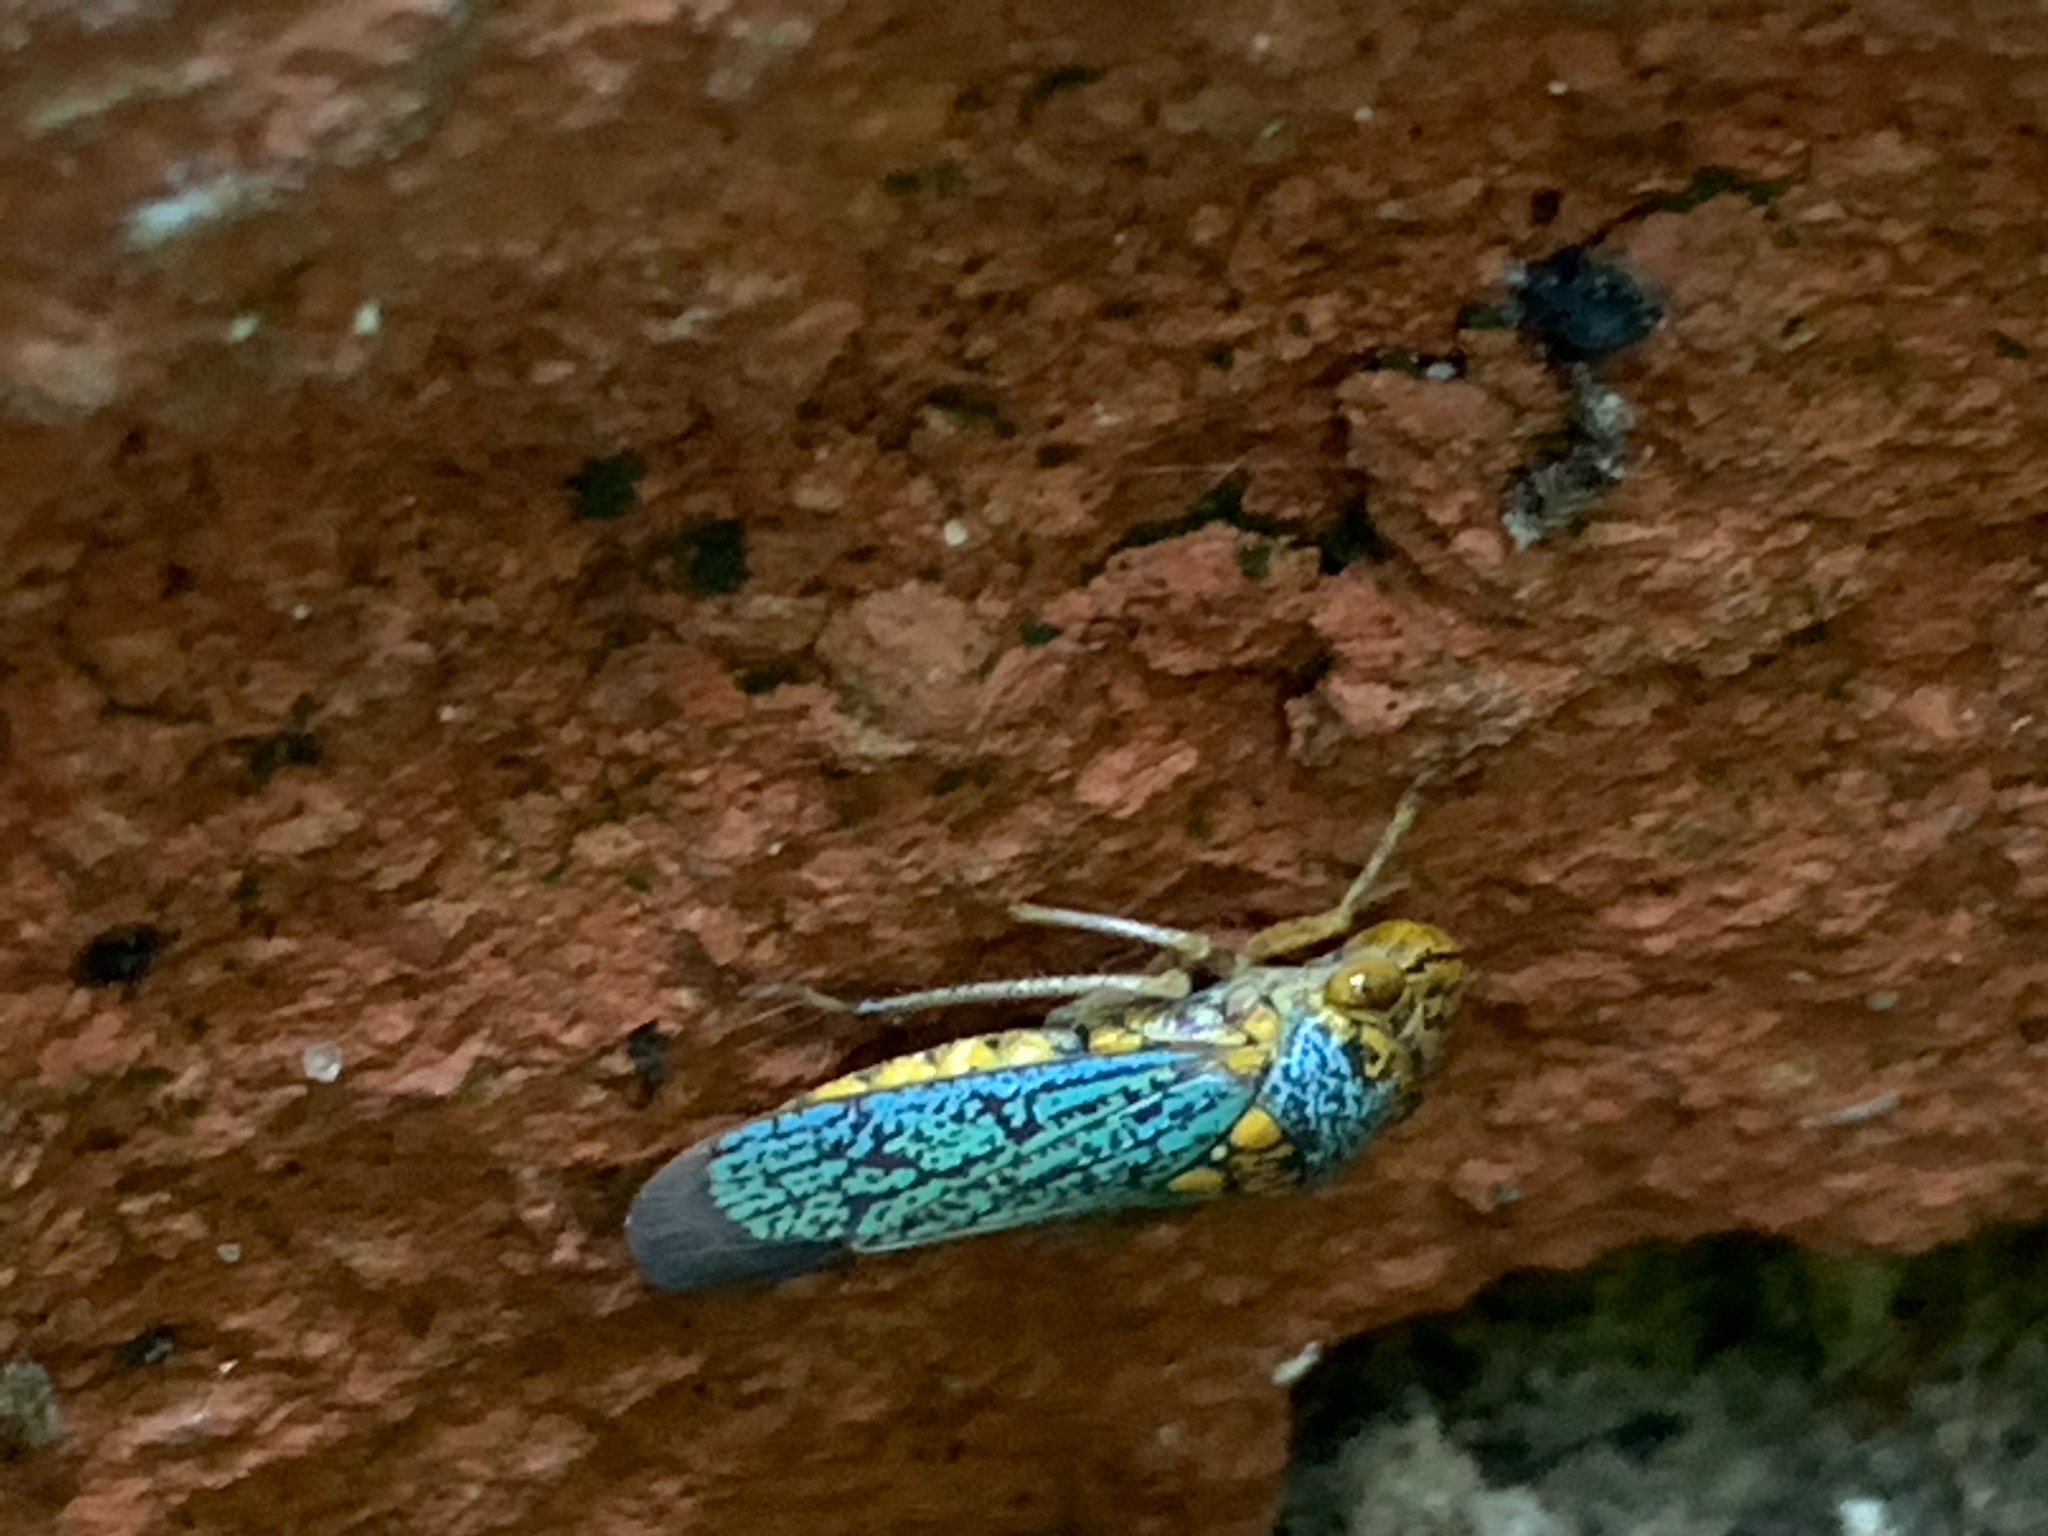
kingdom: Animalia
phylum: Arthropoda
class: Insecta
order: Hemiptera
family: Cicadellidae
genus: Oncometopia
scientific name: Oncometopia orbona
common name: Broad-headed sharpshooter
